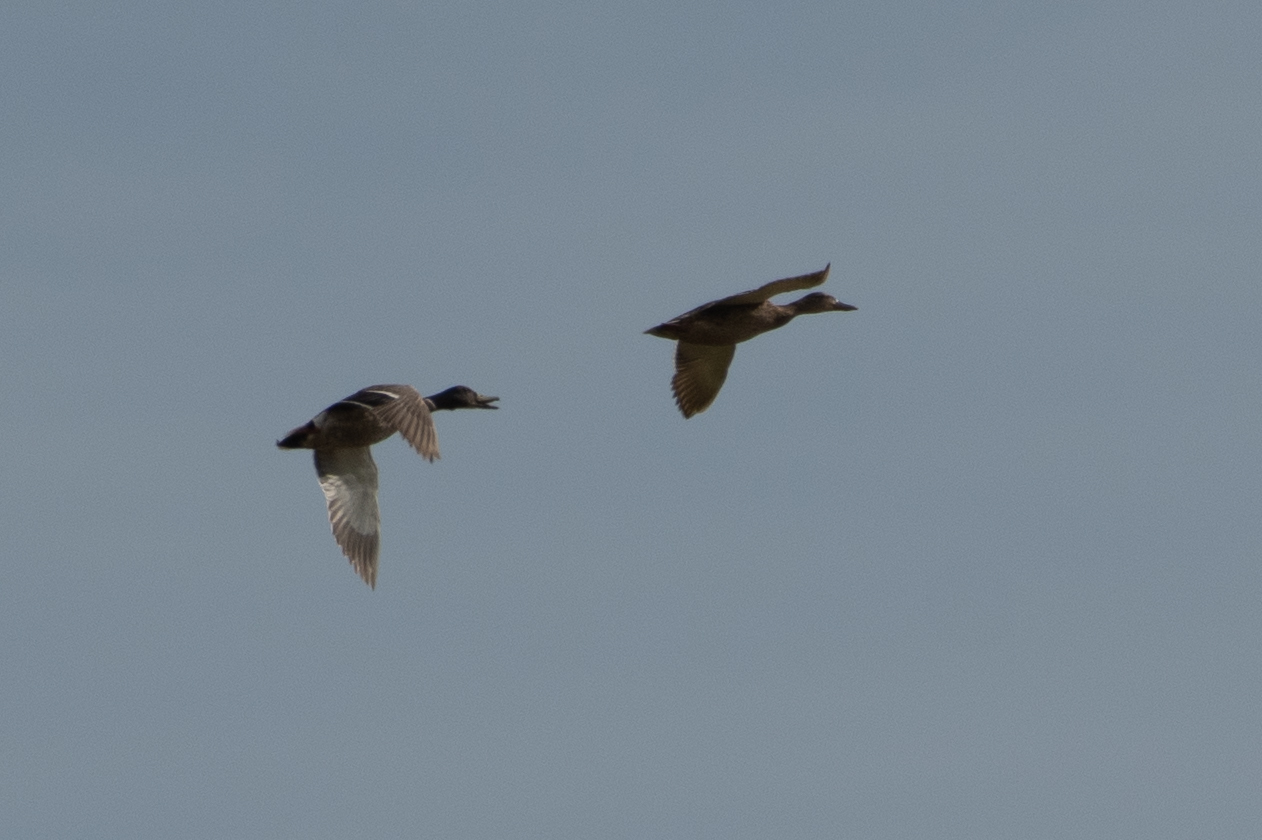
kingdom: Animalia
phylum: Chordata
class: Aves
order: Anseriformes
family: Anatidae
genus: Anas
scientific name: Anas platyrhynchos
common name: Mallard
